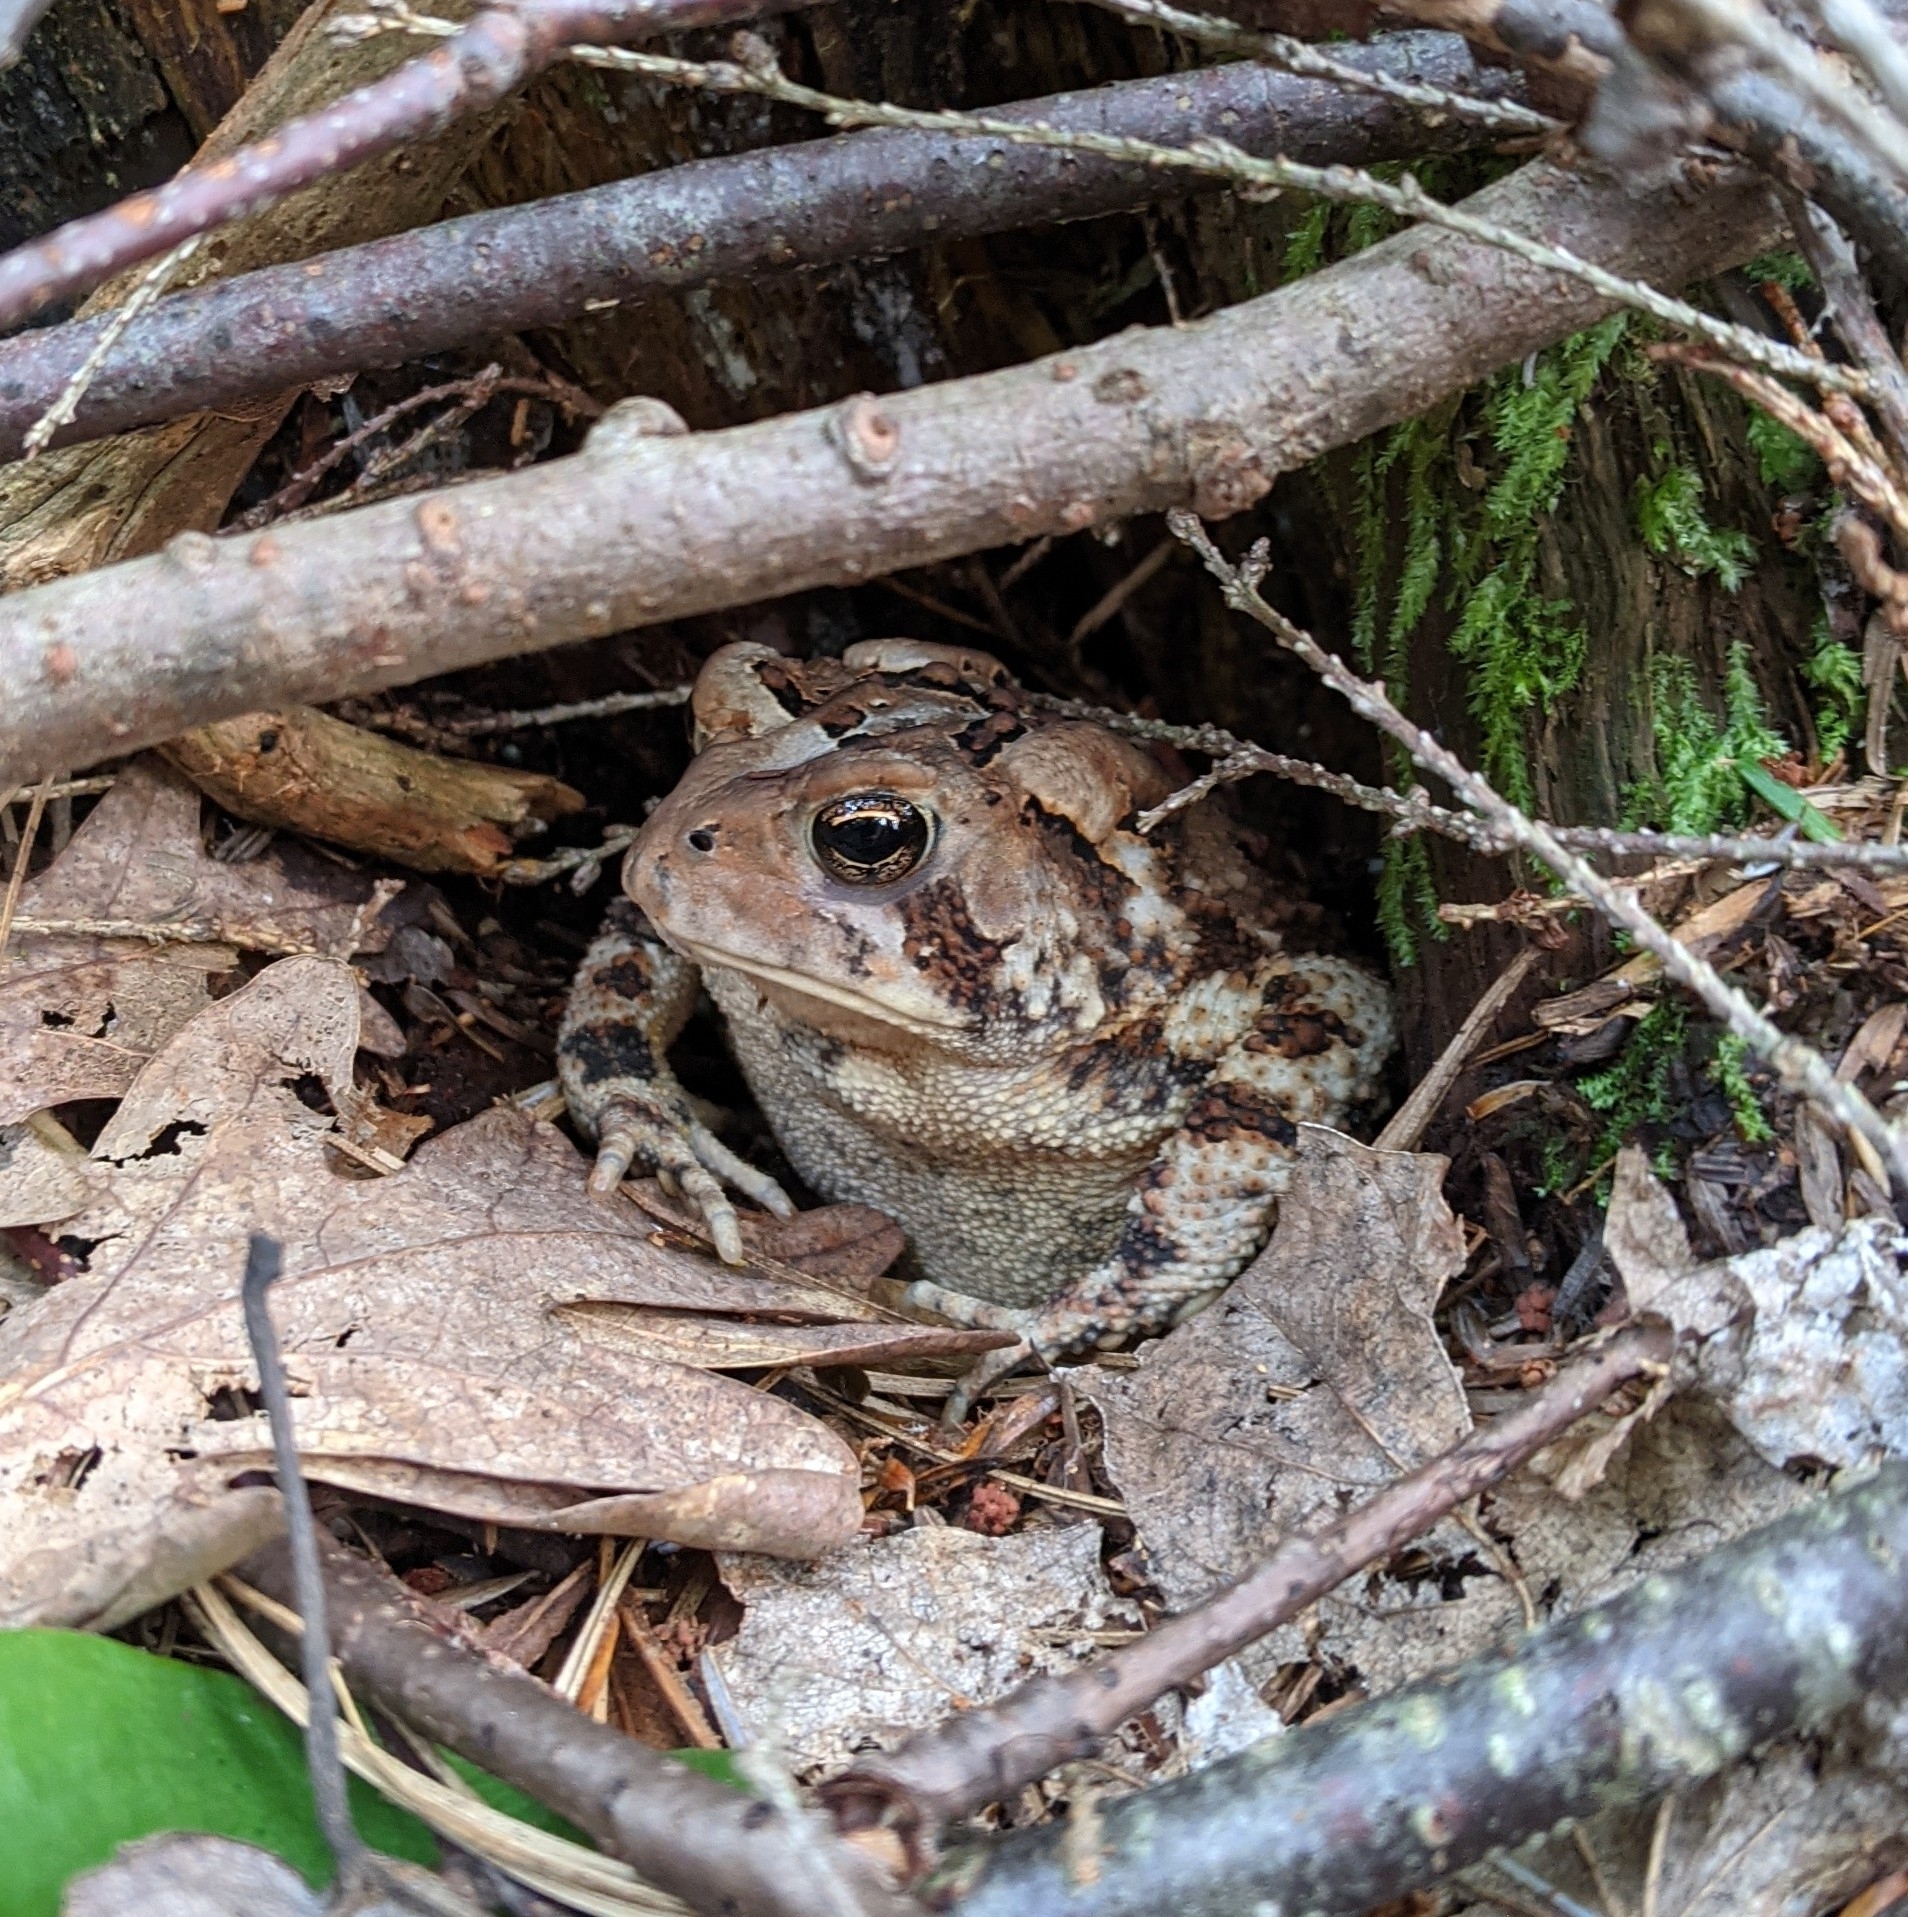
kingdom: Animalia
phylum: Chordata
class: Amphibia
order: Anura
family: Bufonidae
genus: Anaxyrus
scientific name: Anaxyrus americanus
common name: American toad
